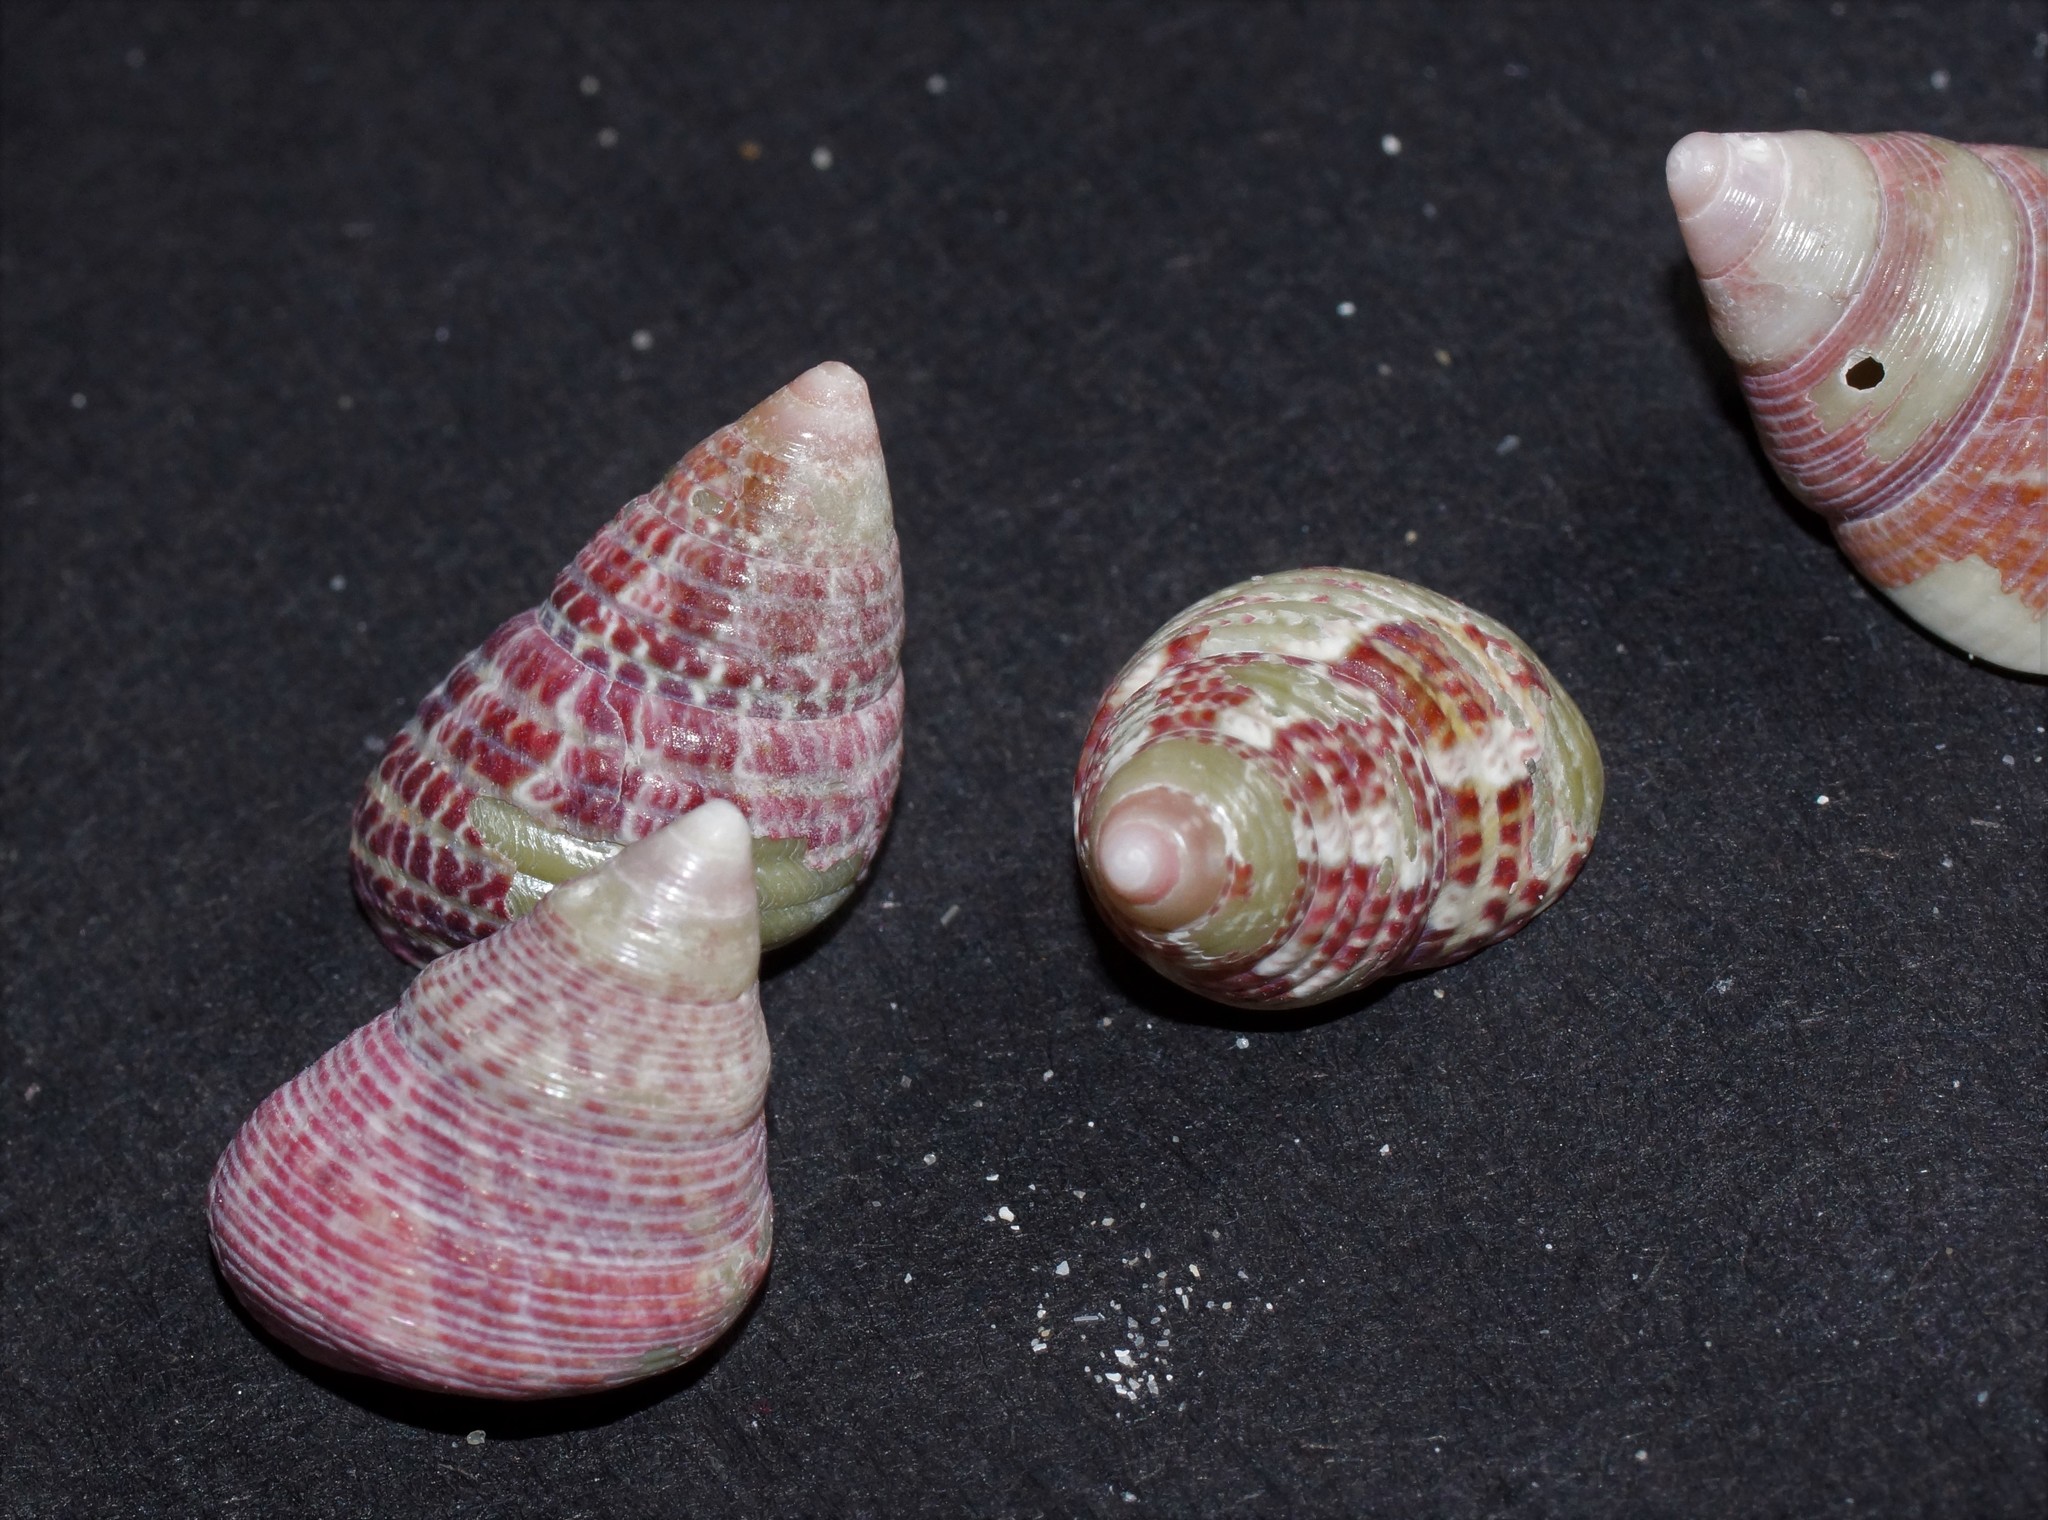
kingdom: Animalia
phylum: Mollusca
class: Gastropoda
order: Trochida
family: Trochidae
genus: Prothalotia
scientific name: Prothalotia pulcherrima
